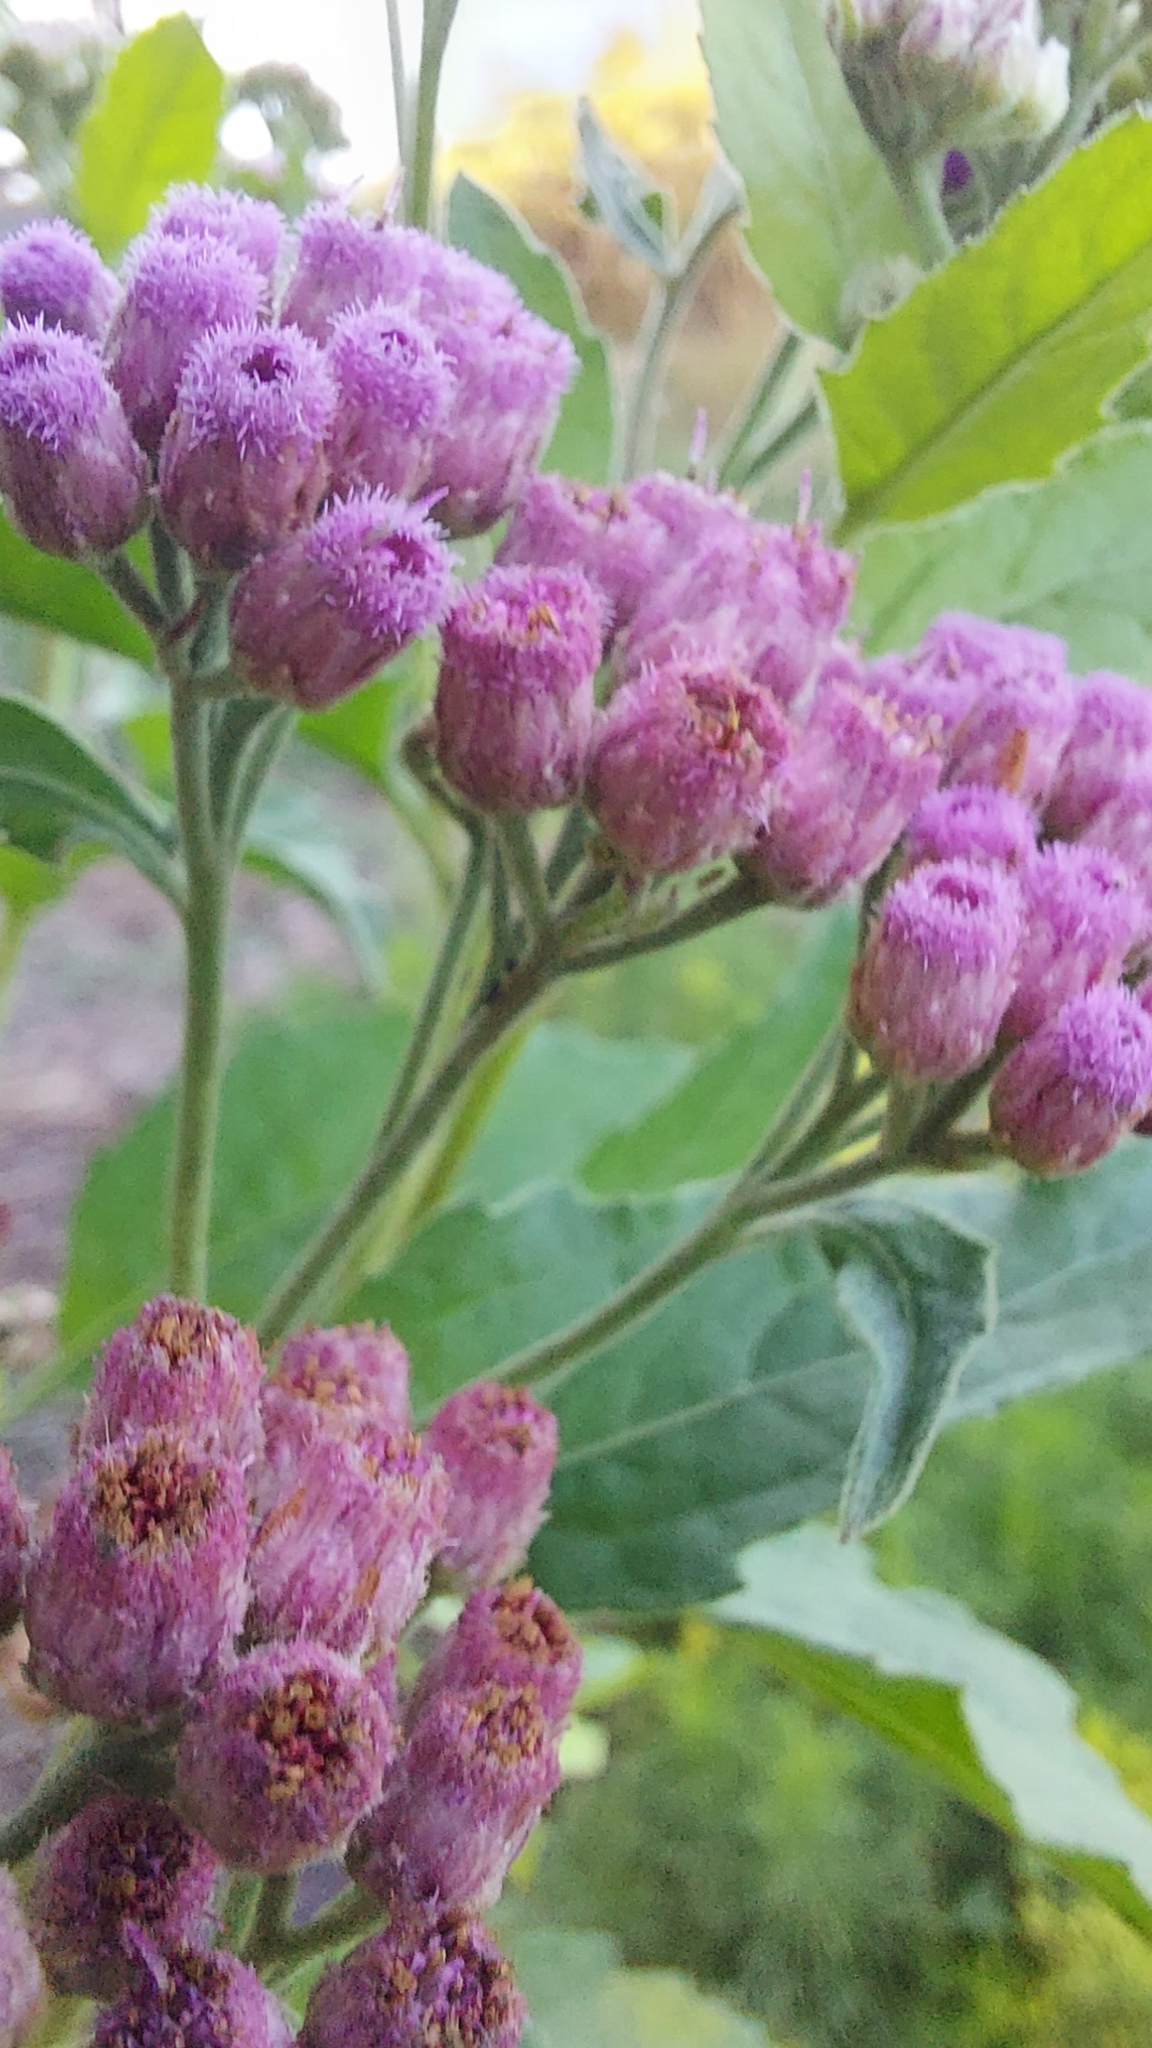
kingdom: Plantae
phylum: Tracheophyta
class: Magnoliopsida
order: Asterales
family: Asteraceae
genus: Pluchea
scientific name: Pluchea odorata
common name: Saltmarsh fleabane
